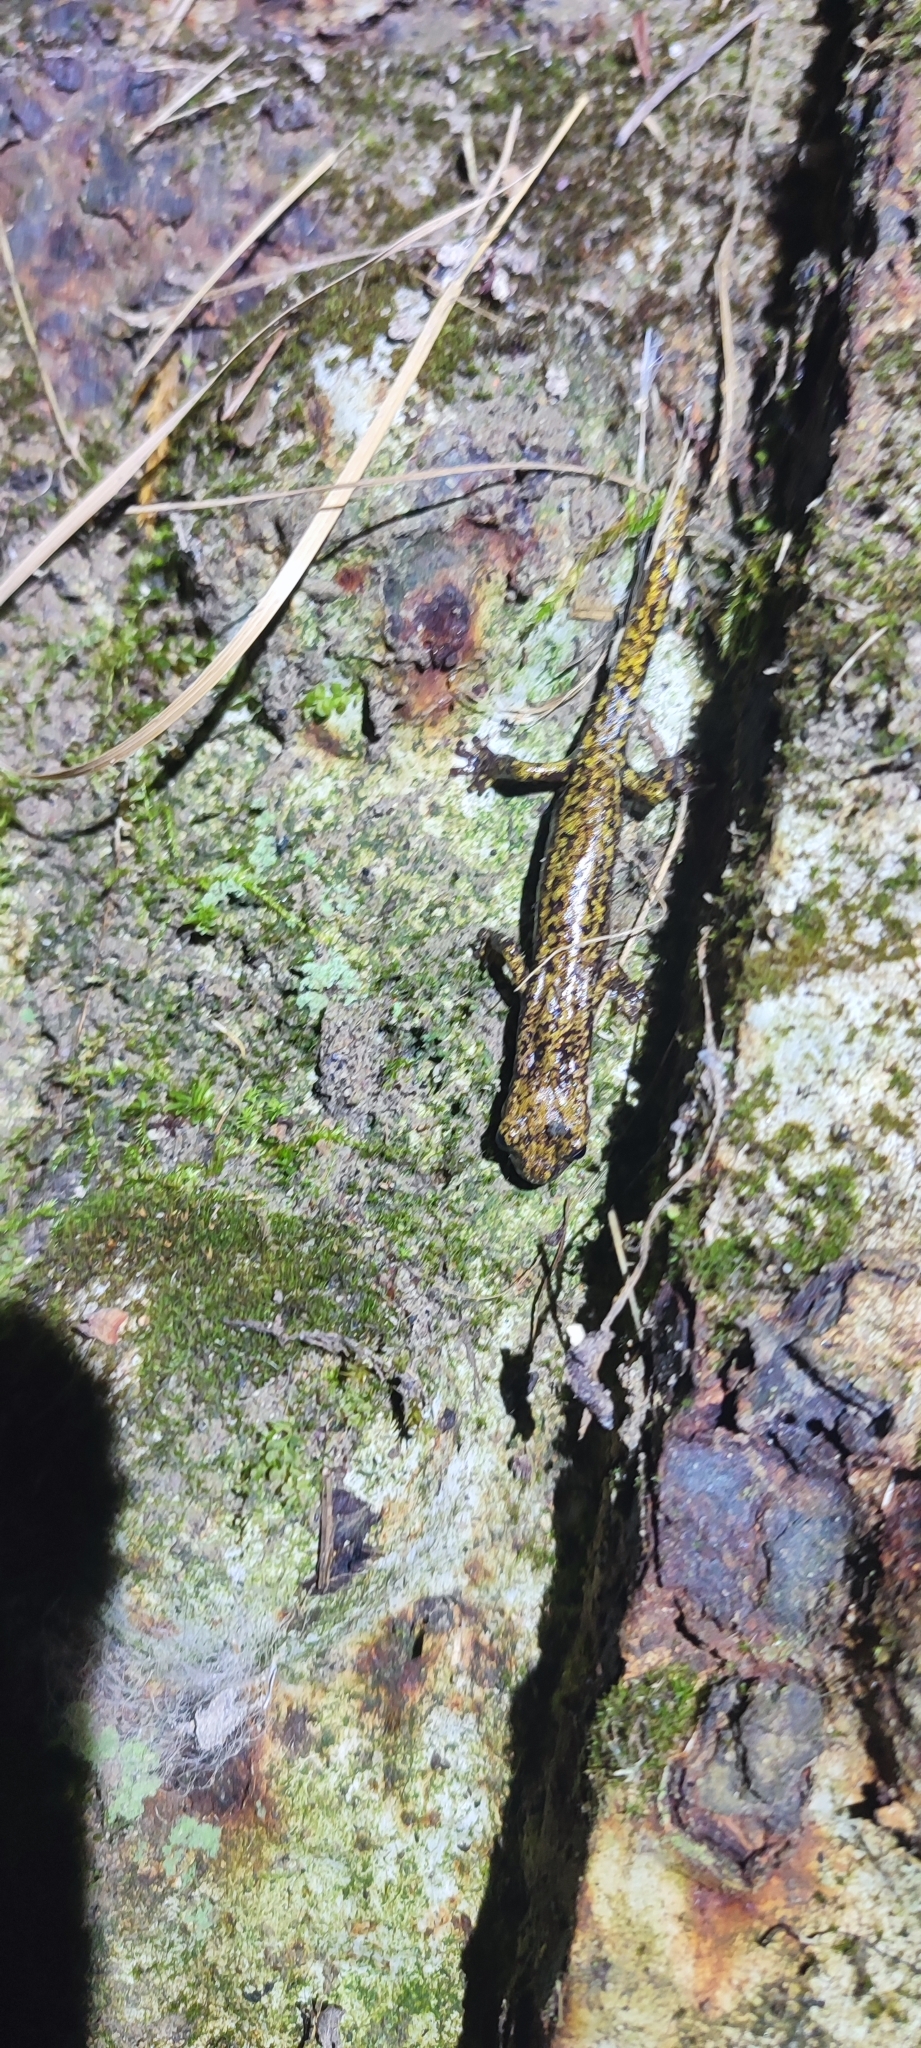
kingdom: Animalia
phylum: Chordata
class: Amphibia
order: Caudata
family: Plethodontidae
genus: Speleomantes
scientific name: Speleomantes strinatii
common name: French cave salamander
